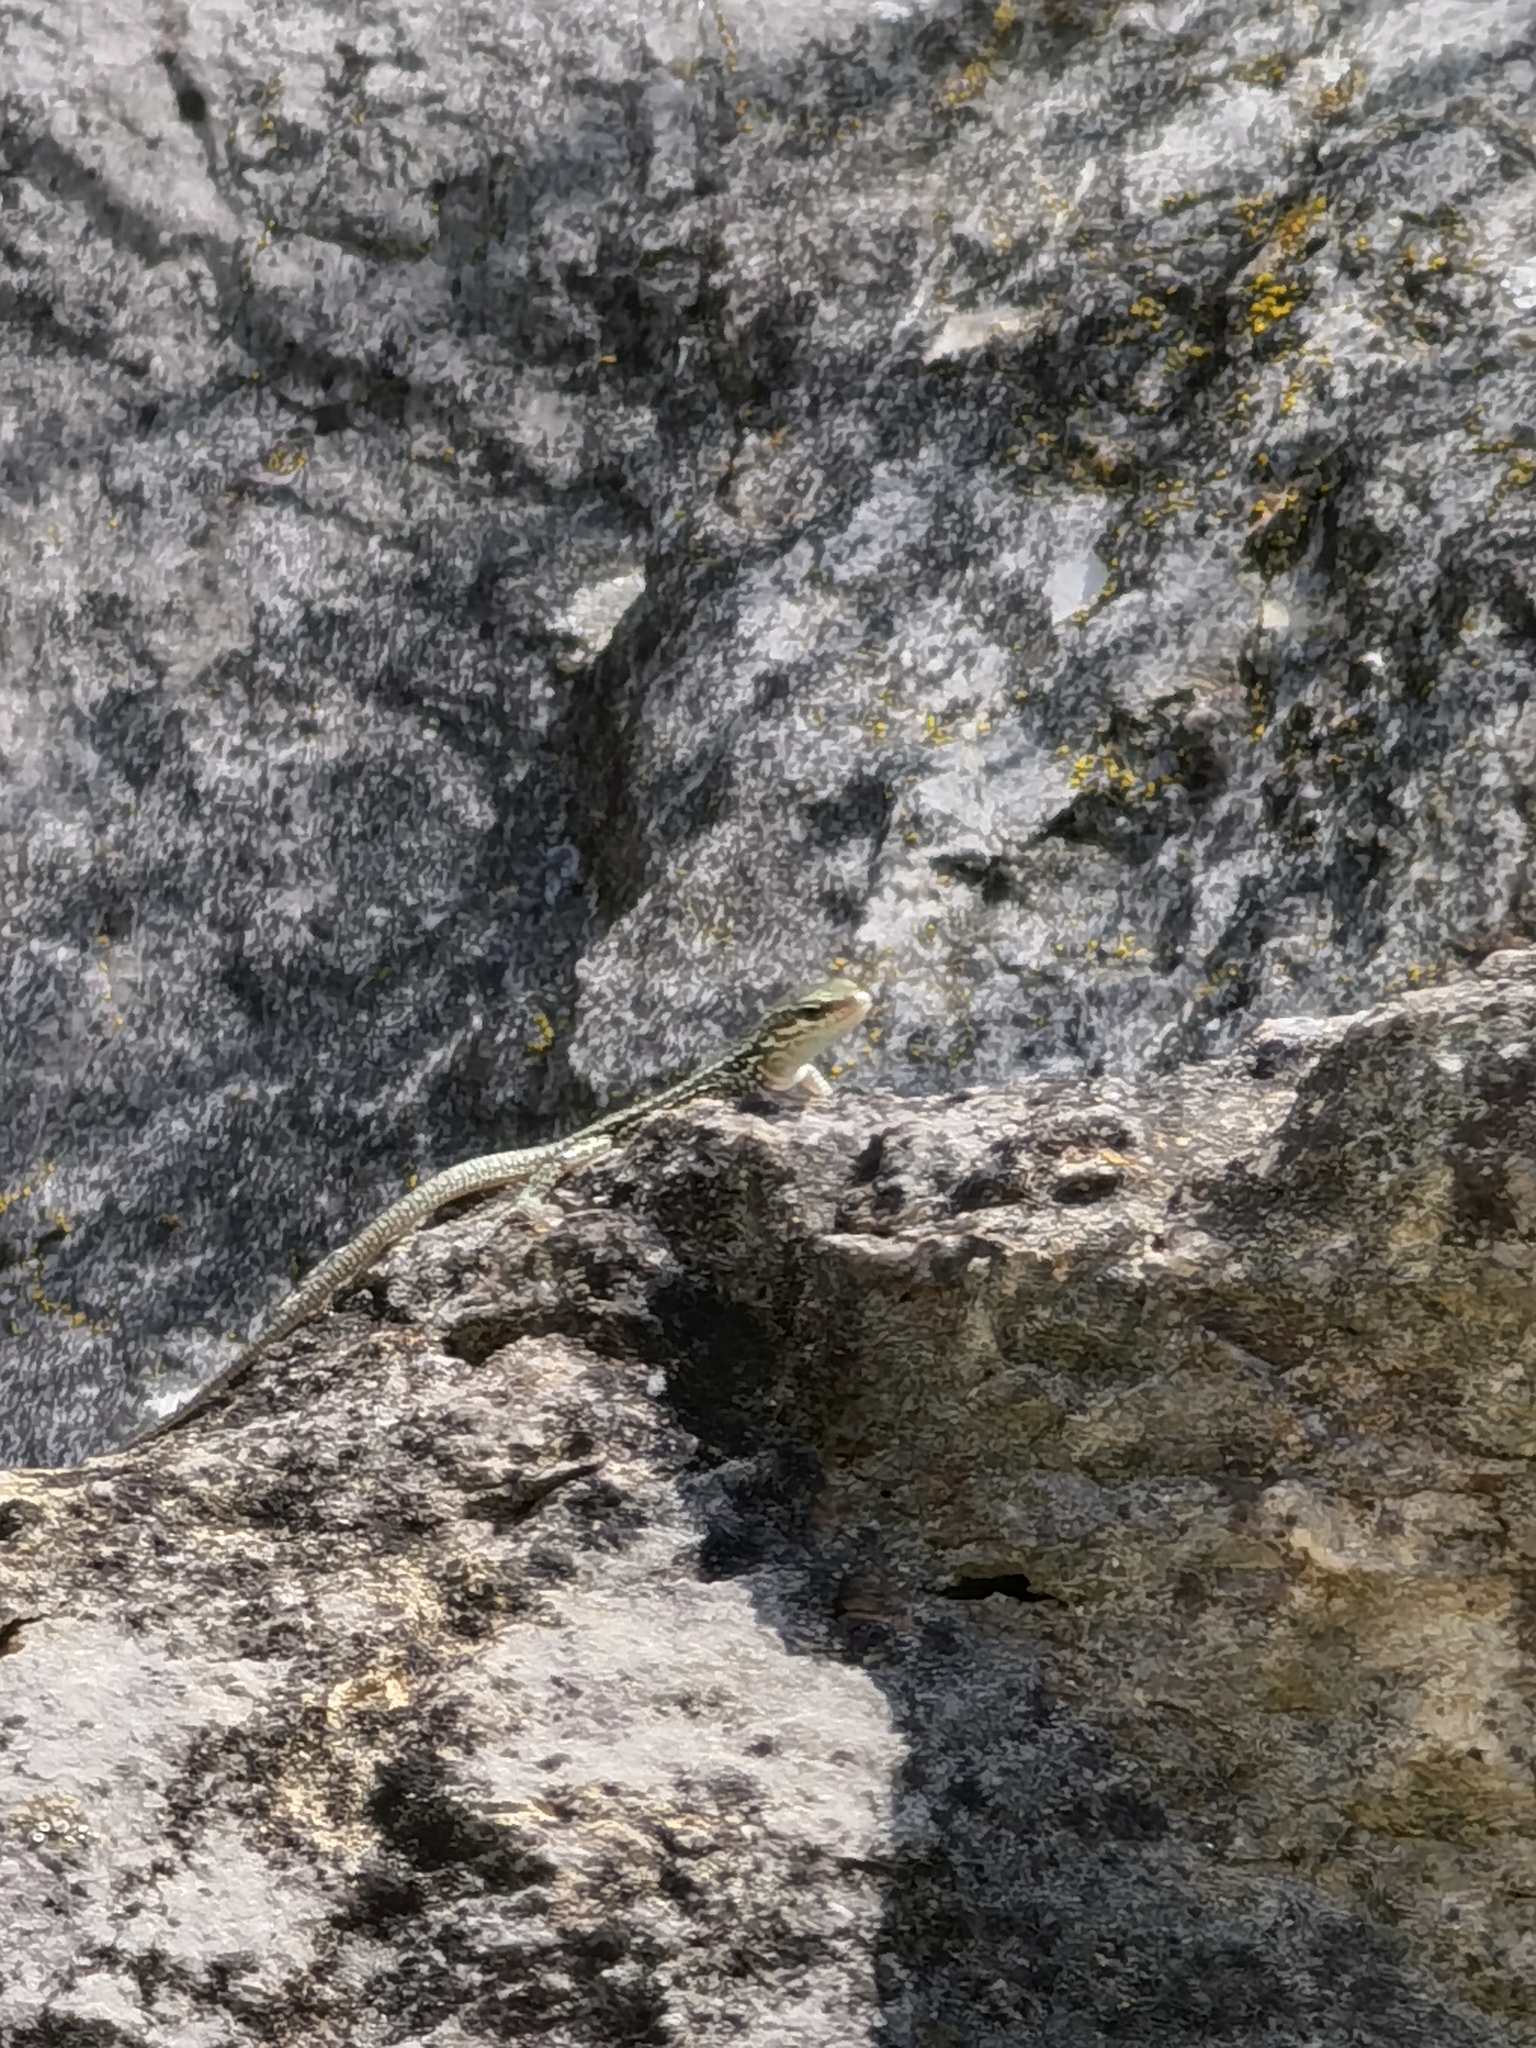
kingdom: Animalia
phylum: Chordata
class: Squamata
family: Lacertidae
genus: Podarcis
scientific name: Podarcis muralis
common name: Common wall lizard
